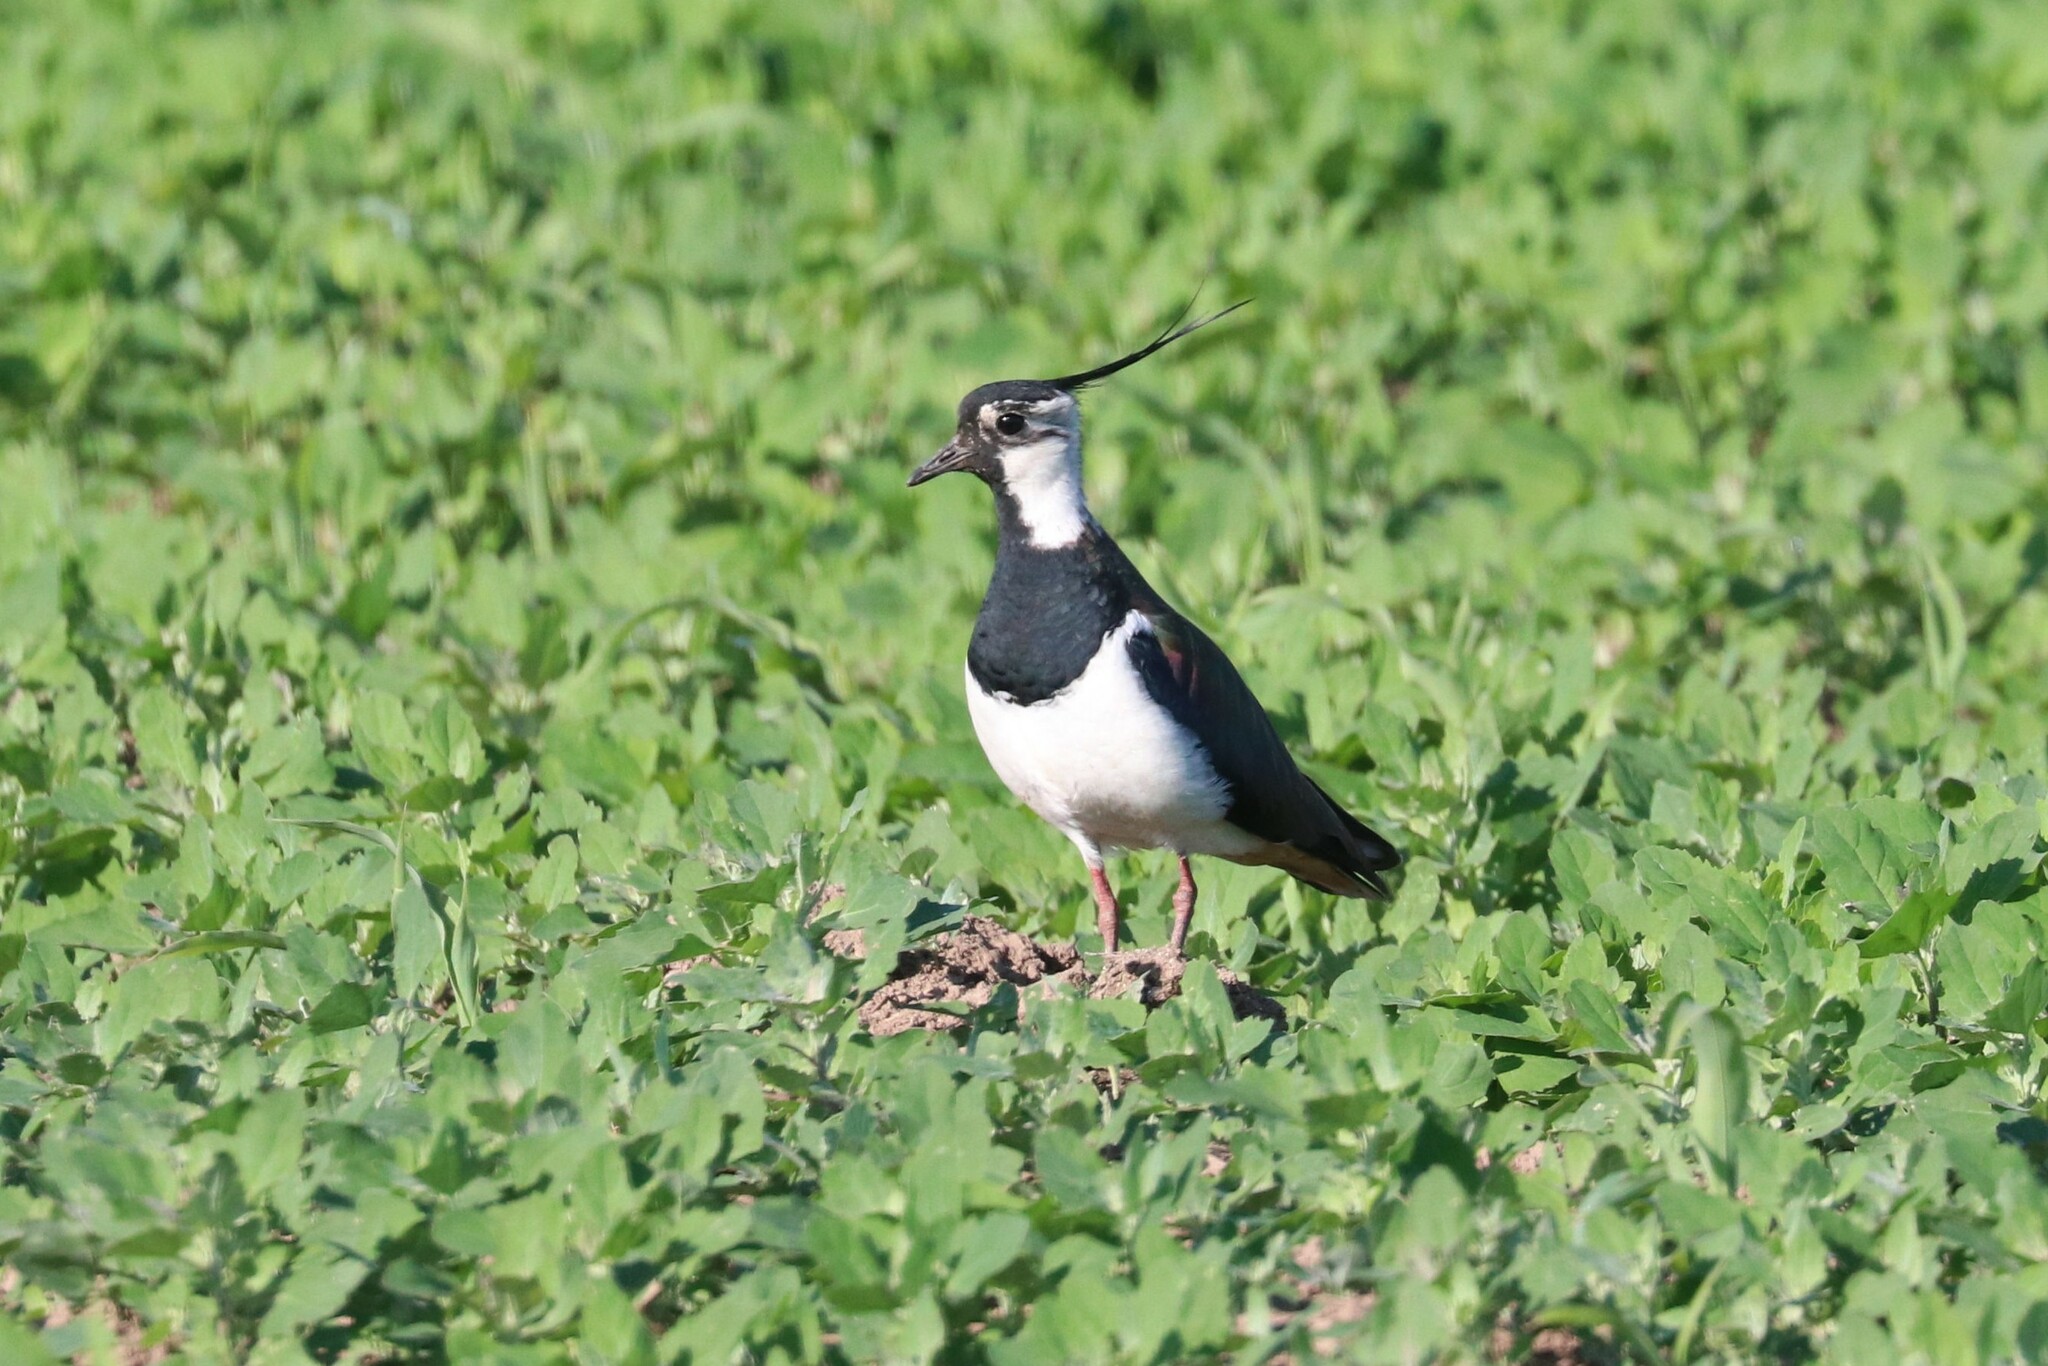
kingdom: Animalia
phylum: Chordata
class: Aves
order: Charadriiformes
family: Charadriidae
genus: Vanellus
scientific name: Vanellus vanellus
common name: Northern lapwing
